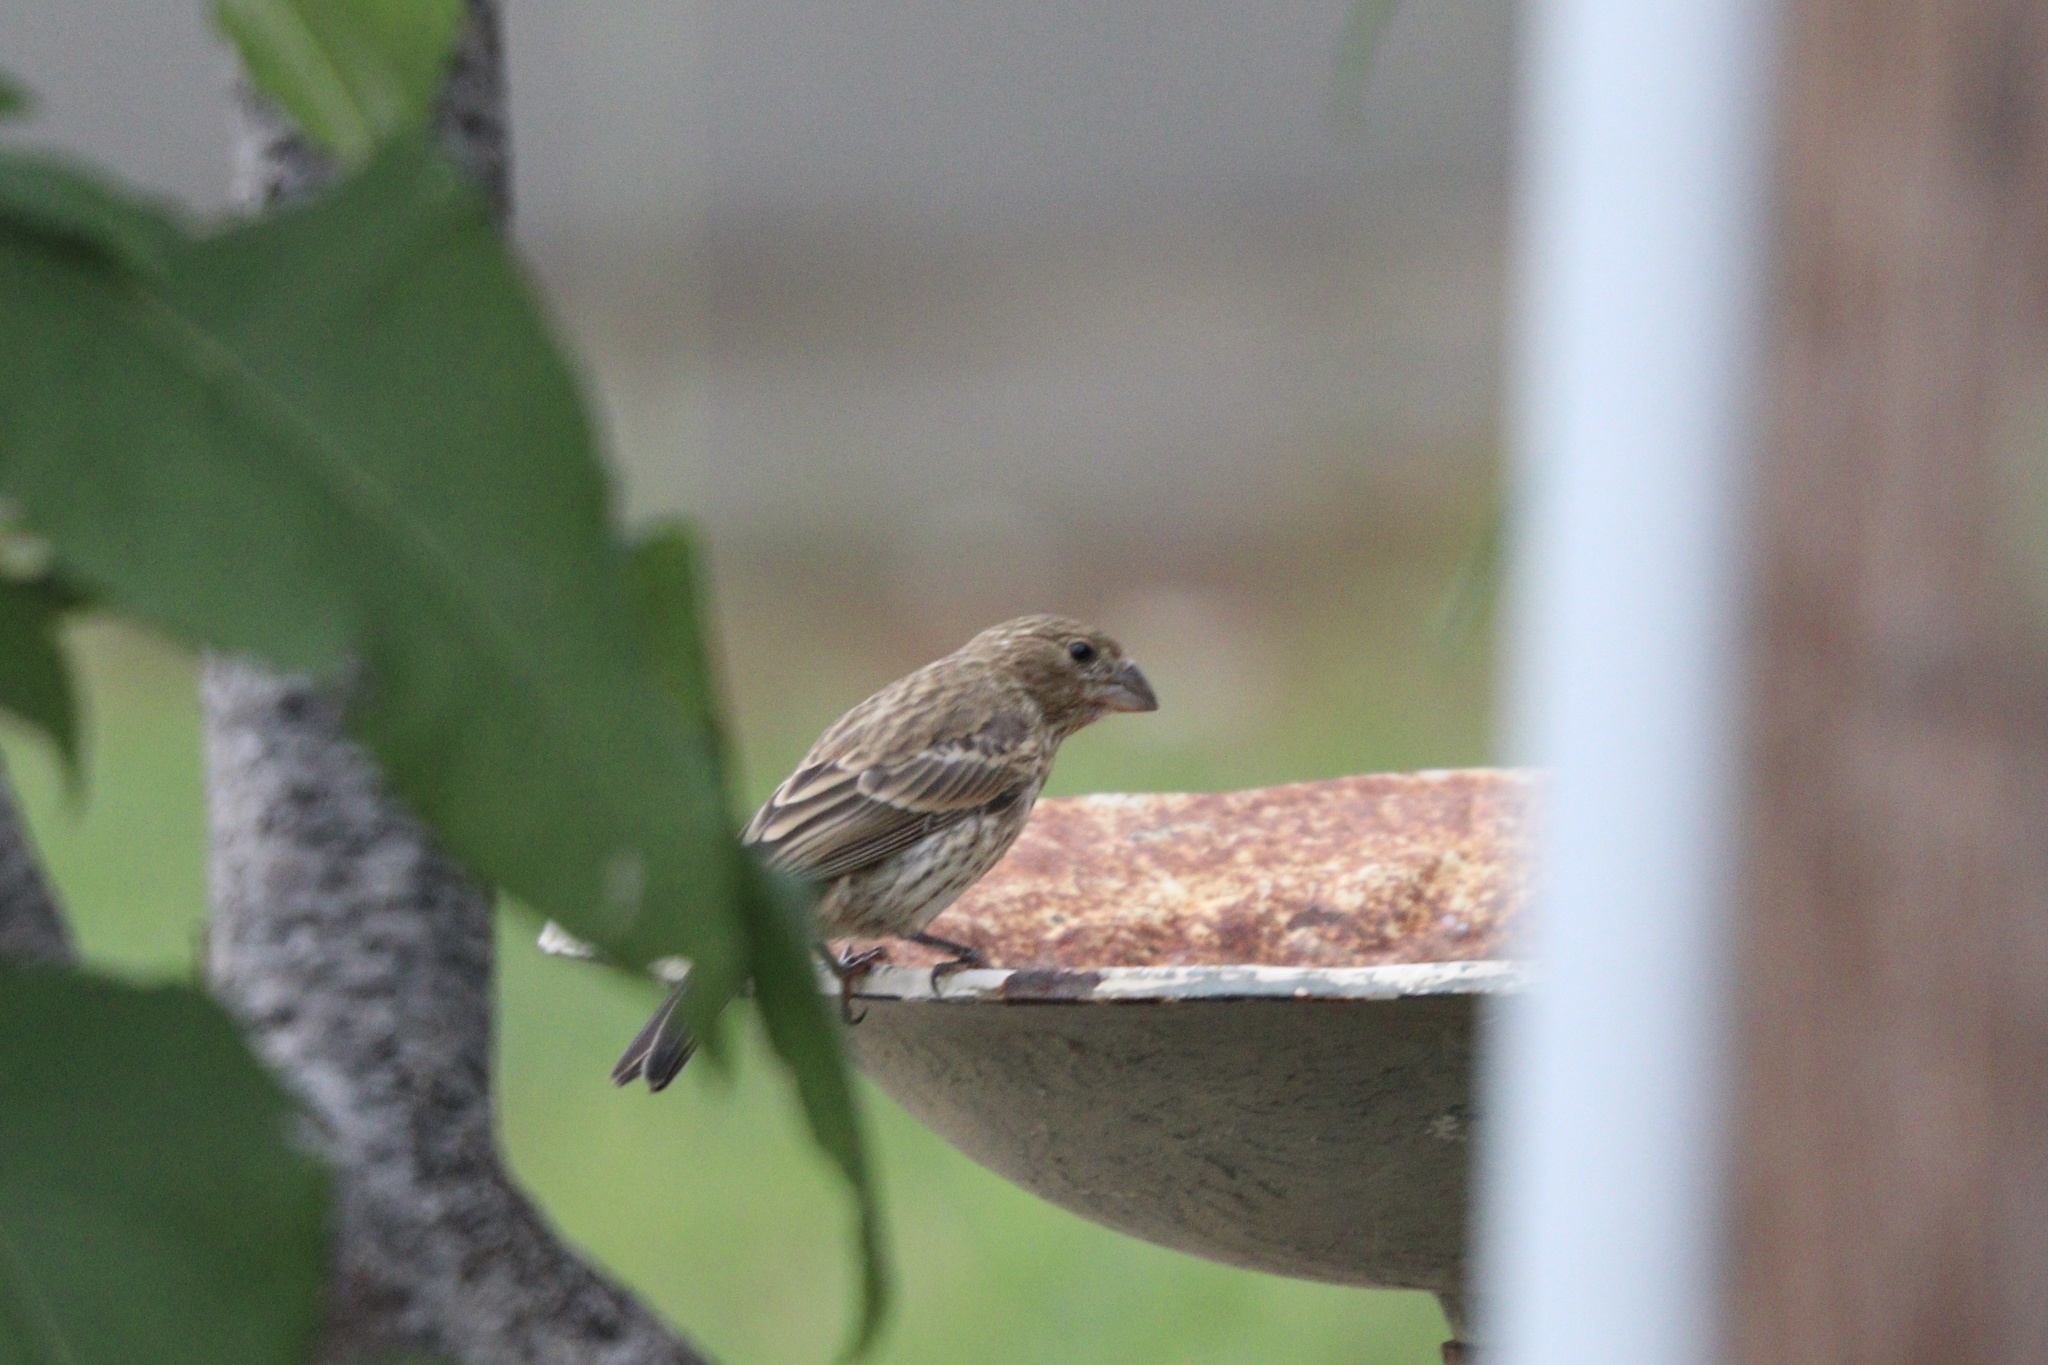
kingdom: Animalia
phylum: Chordata
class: Aves
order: Passeriformes
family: Fringillidae
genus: Haemorhous
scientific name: Haemorhous mexicanus
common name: House finch
